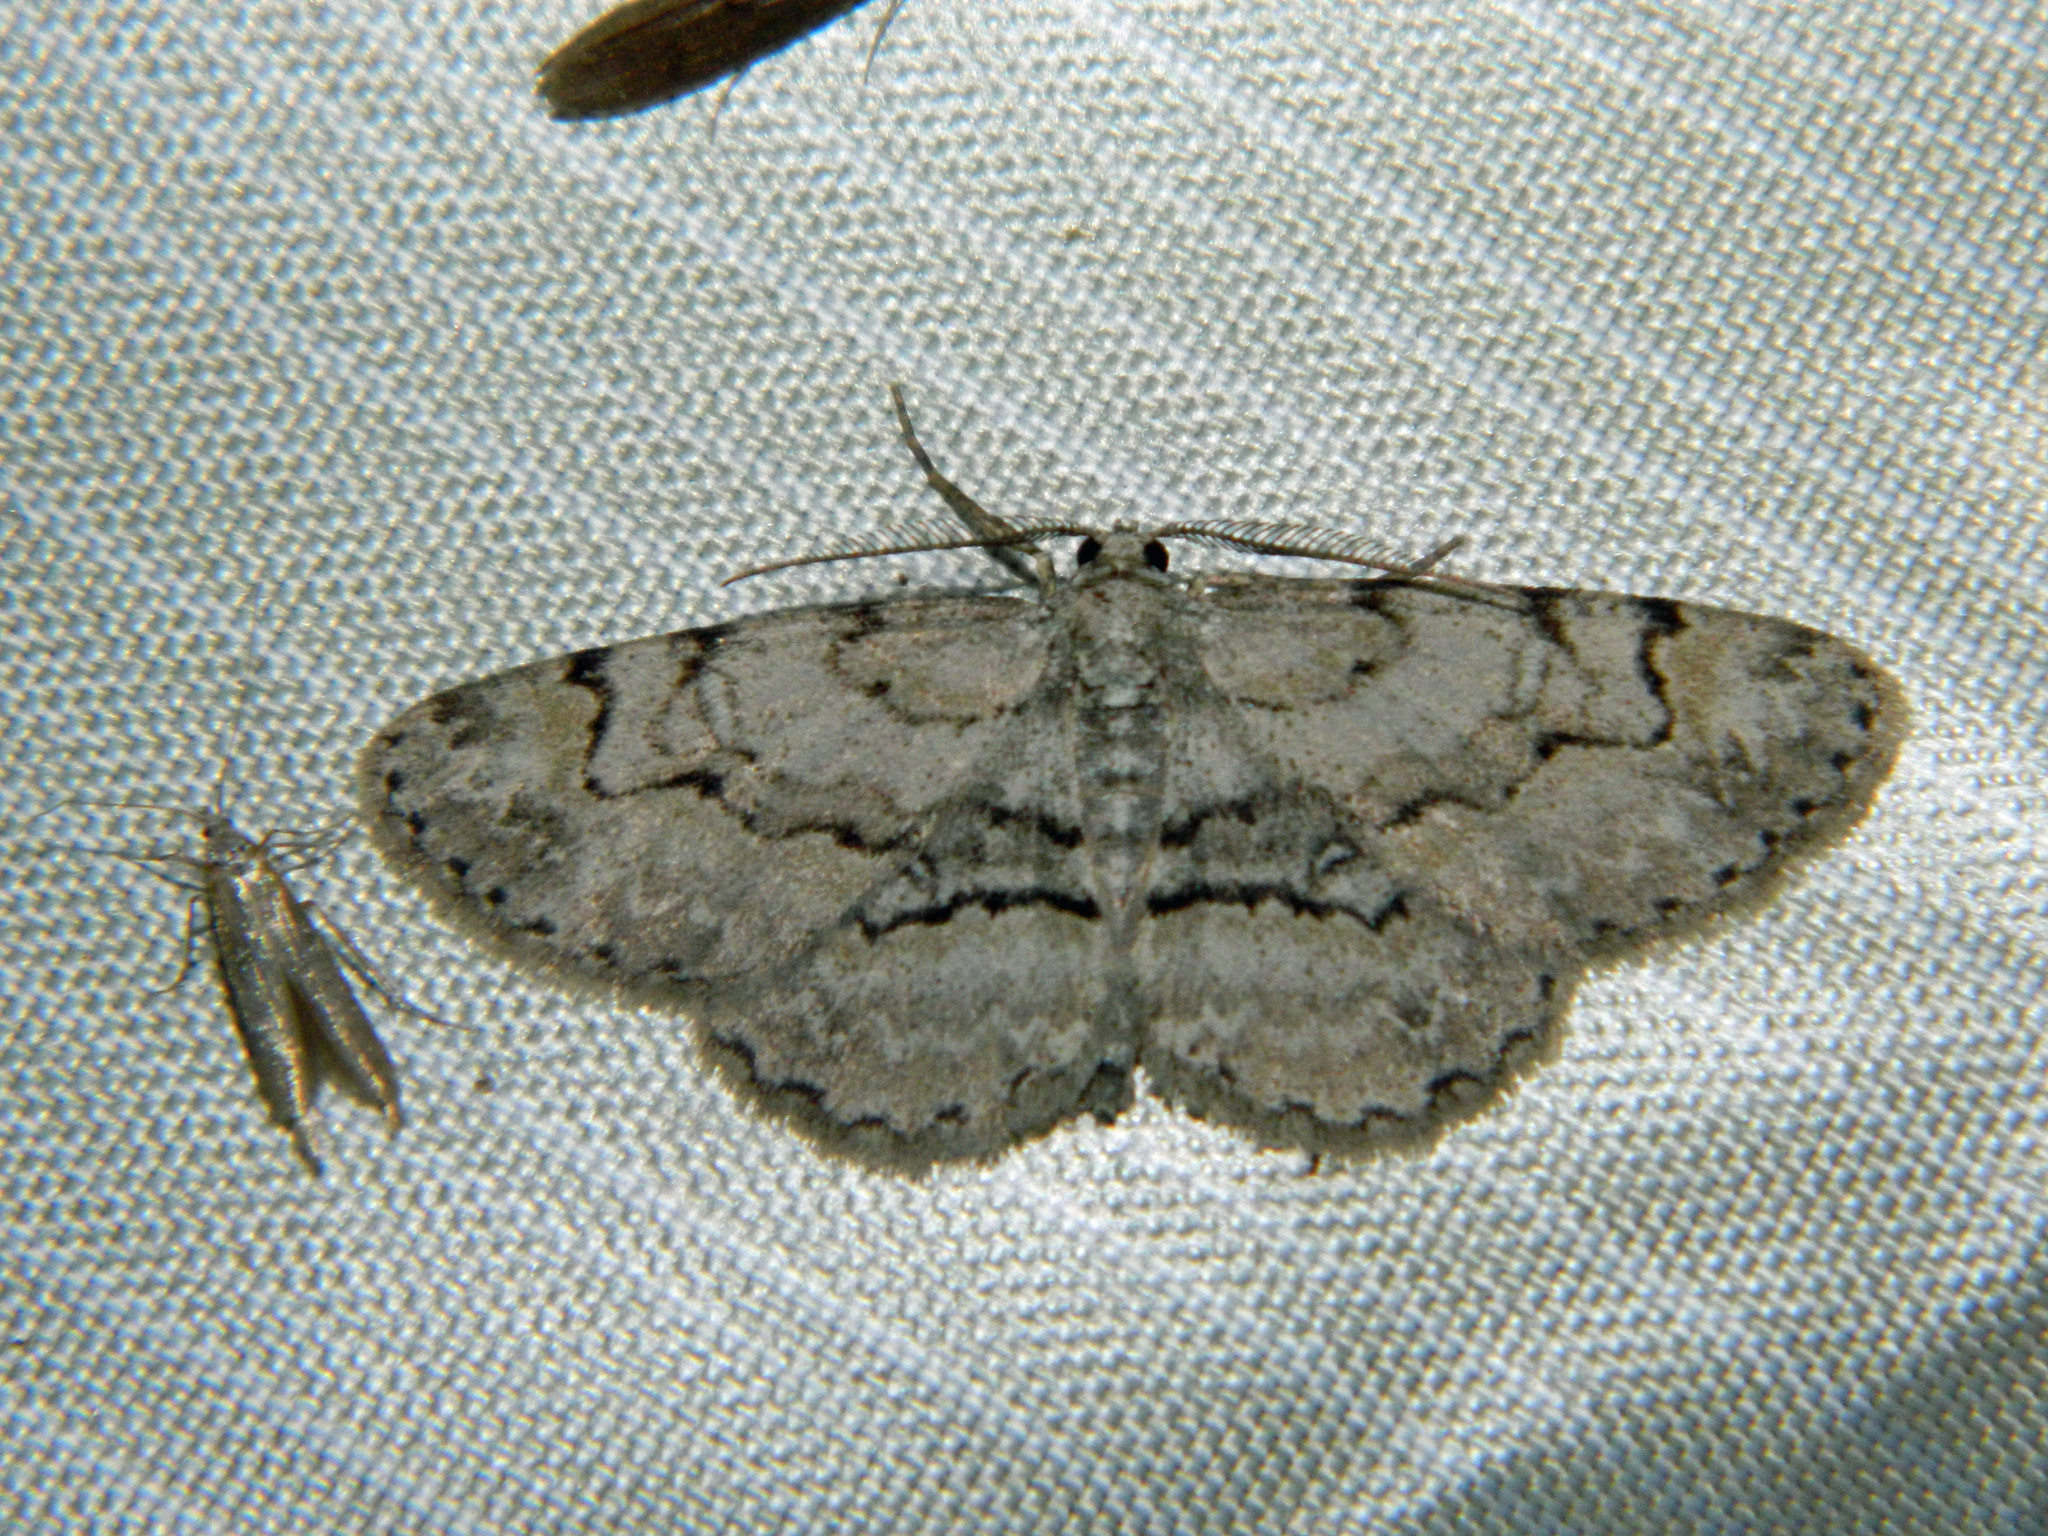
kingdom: Animalia
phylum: Arthropoda
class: Insecta
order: Lepidoptera
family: Geometridae
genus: Iridopsis
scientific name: Iridopsis ephyraria
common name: Pale-winged gray
